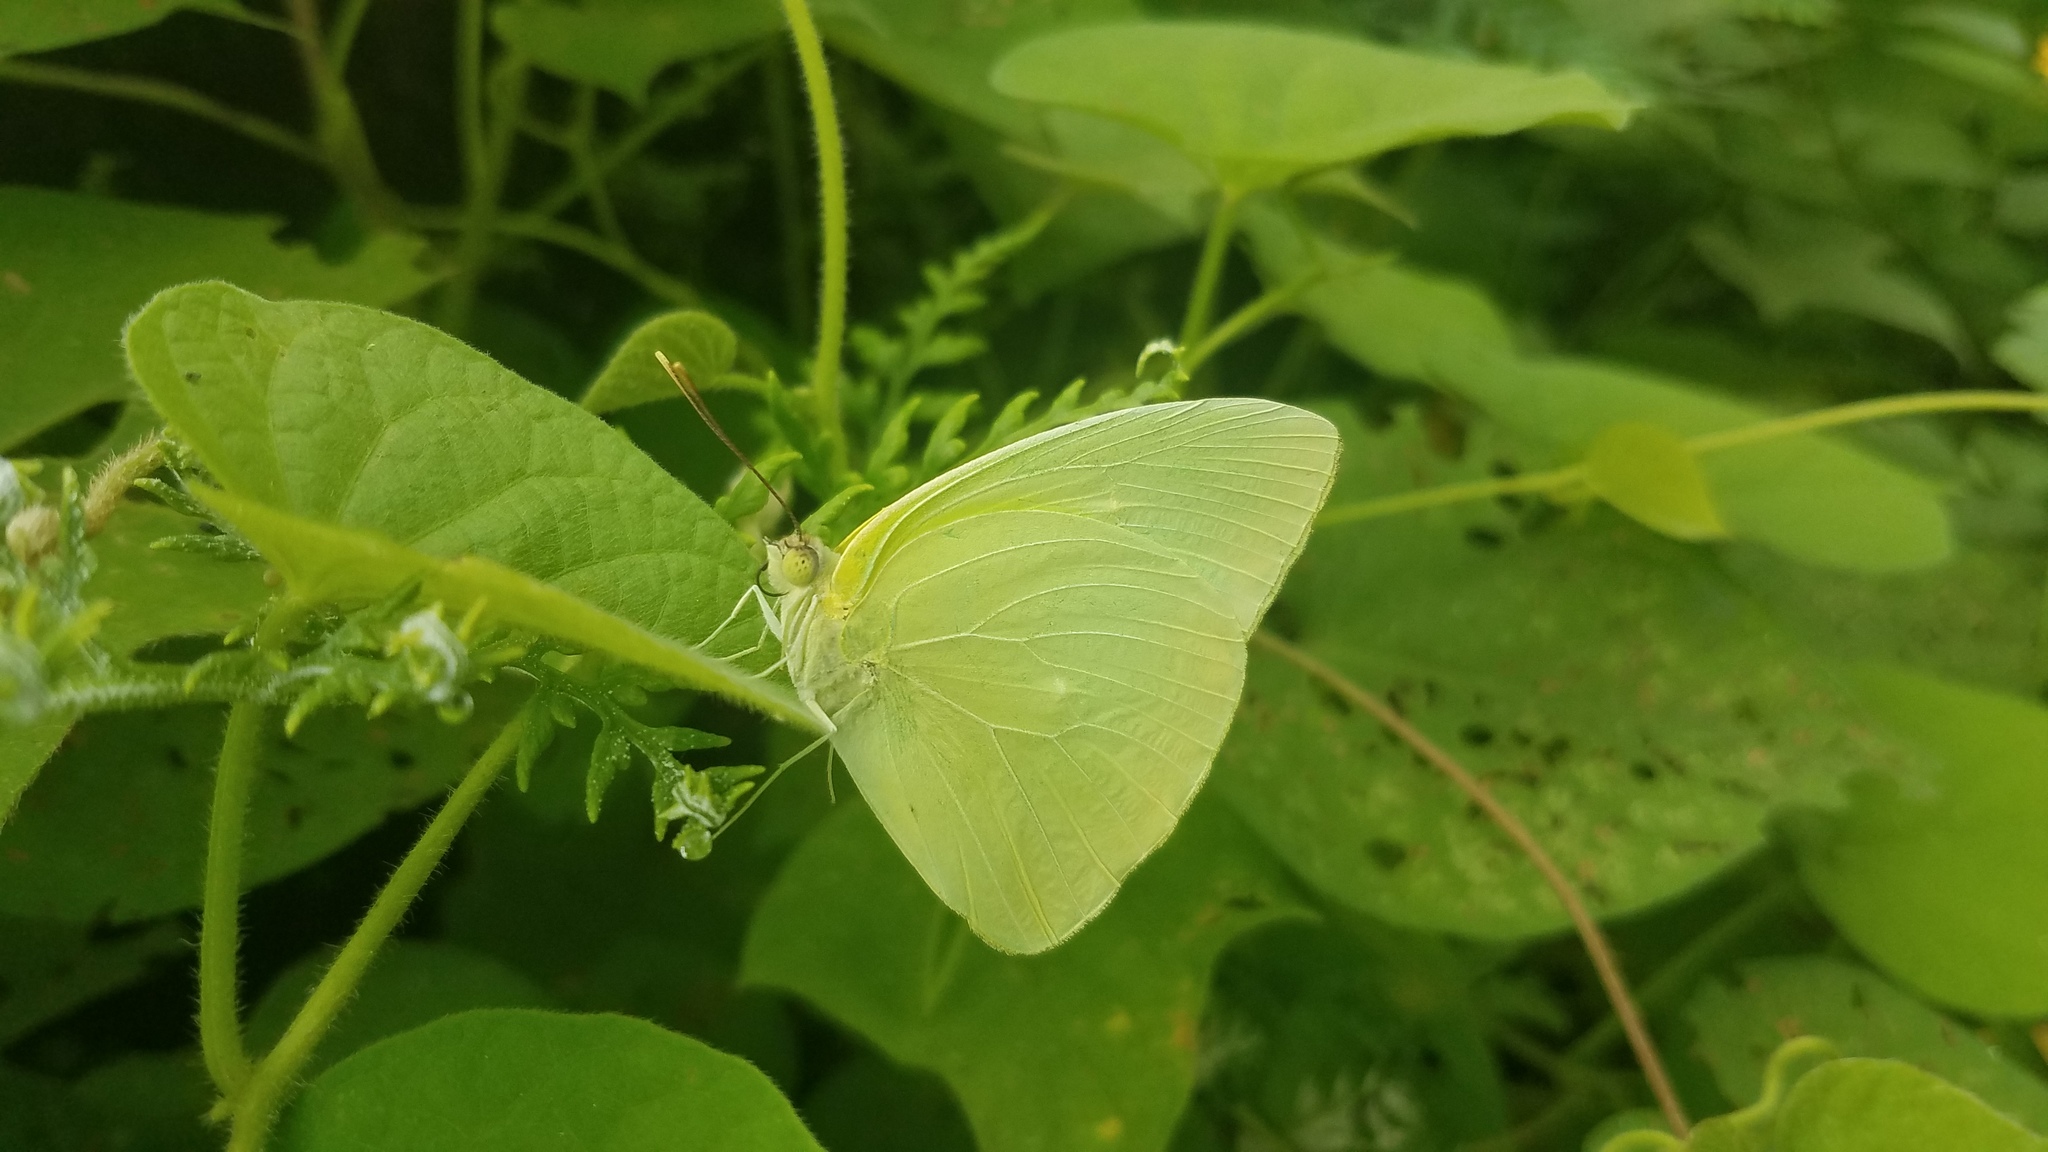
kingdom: Animalia
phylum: Arthropoda
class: Insecta
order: Lepidoptera
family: Pieridae
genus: Phoebis
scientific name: Phoebis marcellina
